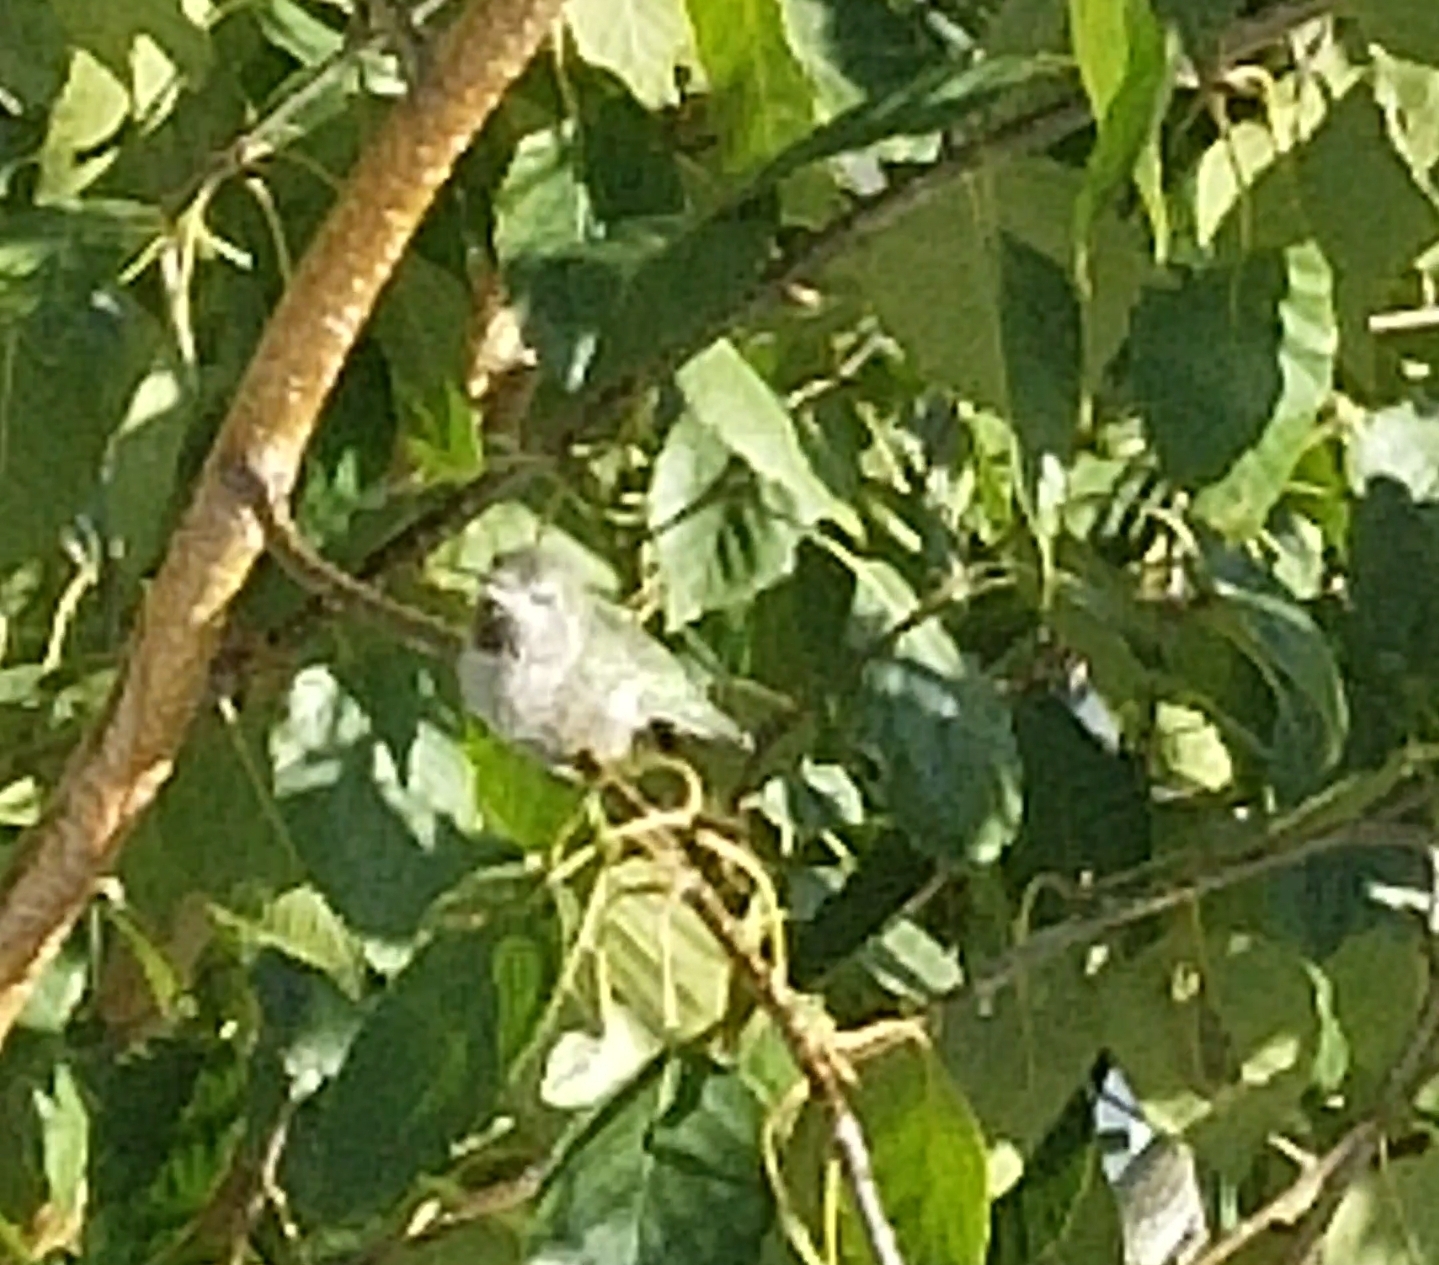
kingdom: Animalia
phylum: Chordata
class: Aves
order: Apodiformes
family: Trochilidae
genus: Calypte
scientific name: Calypte anna
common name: Anna's hummingbird
